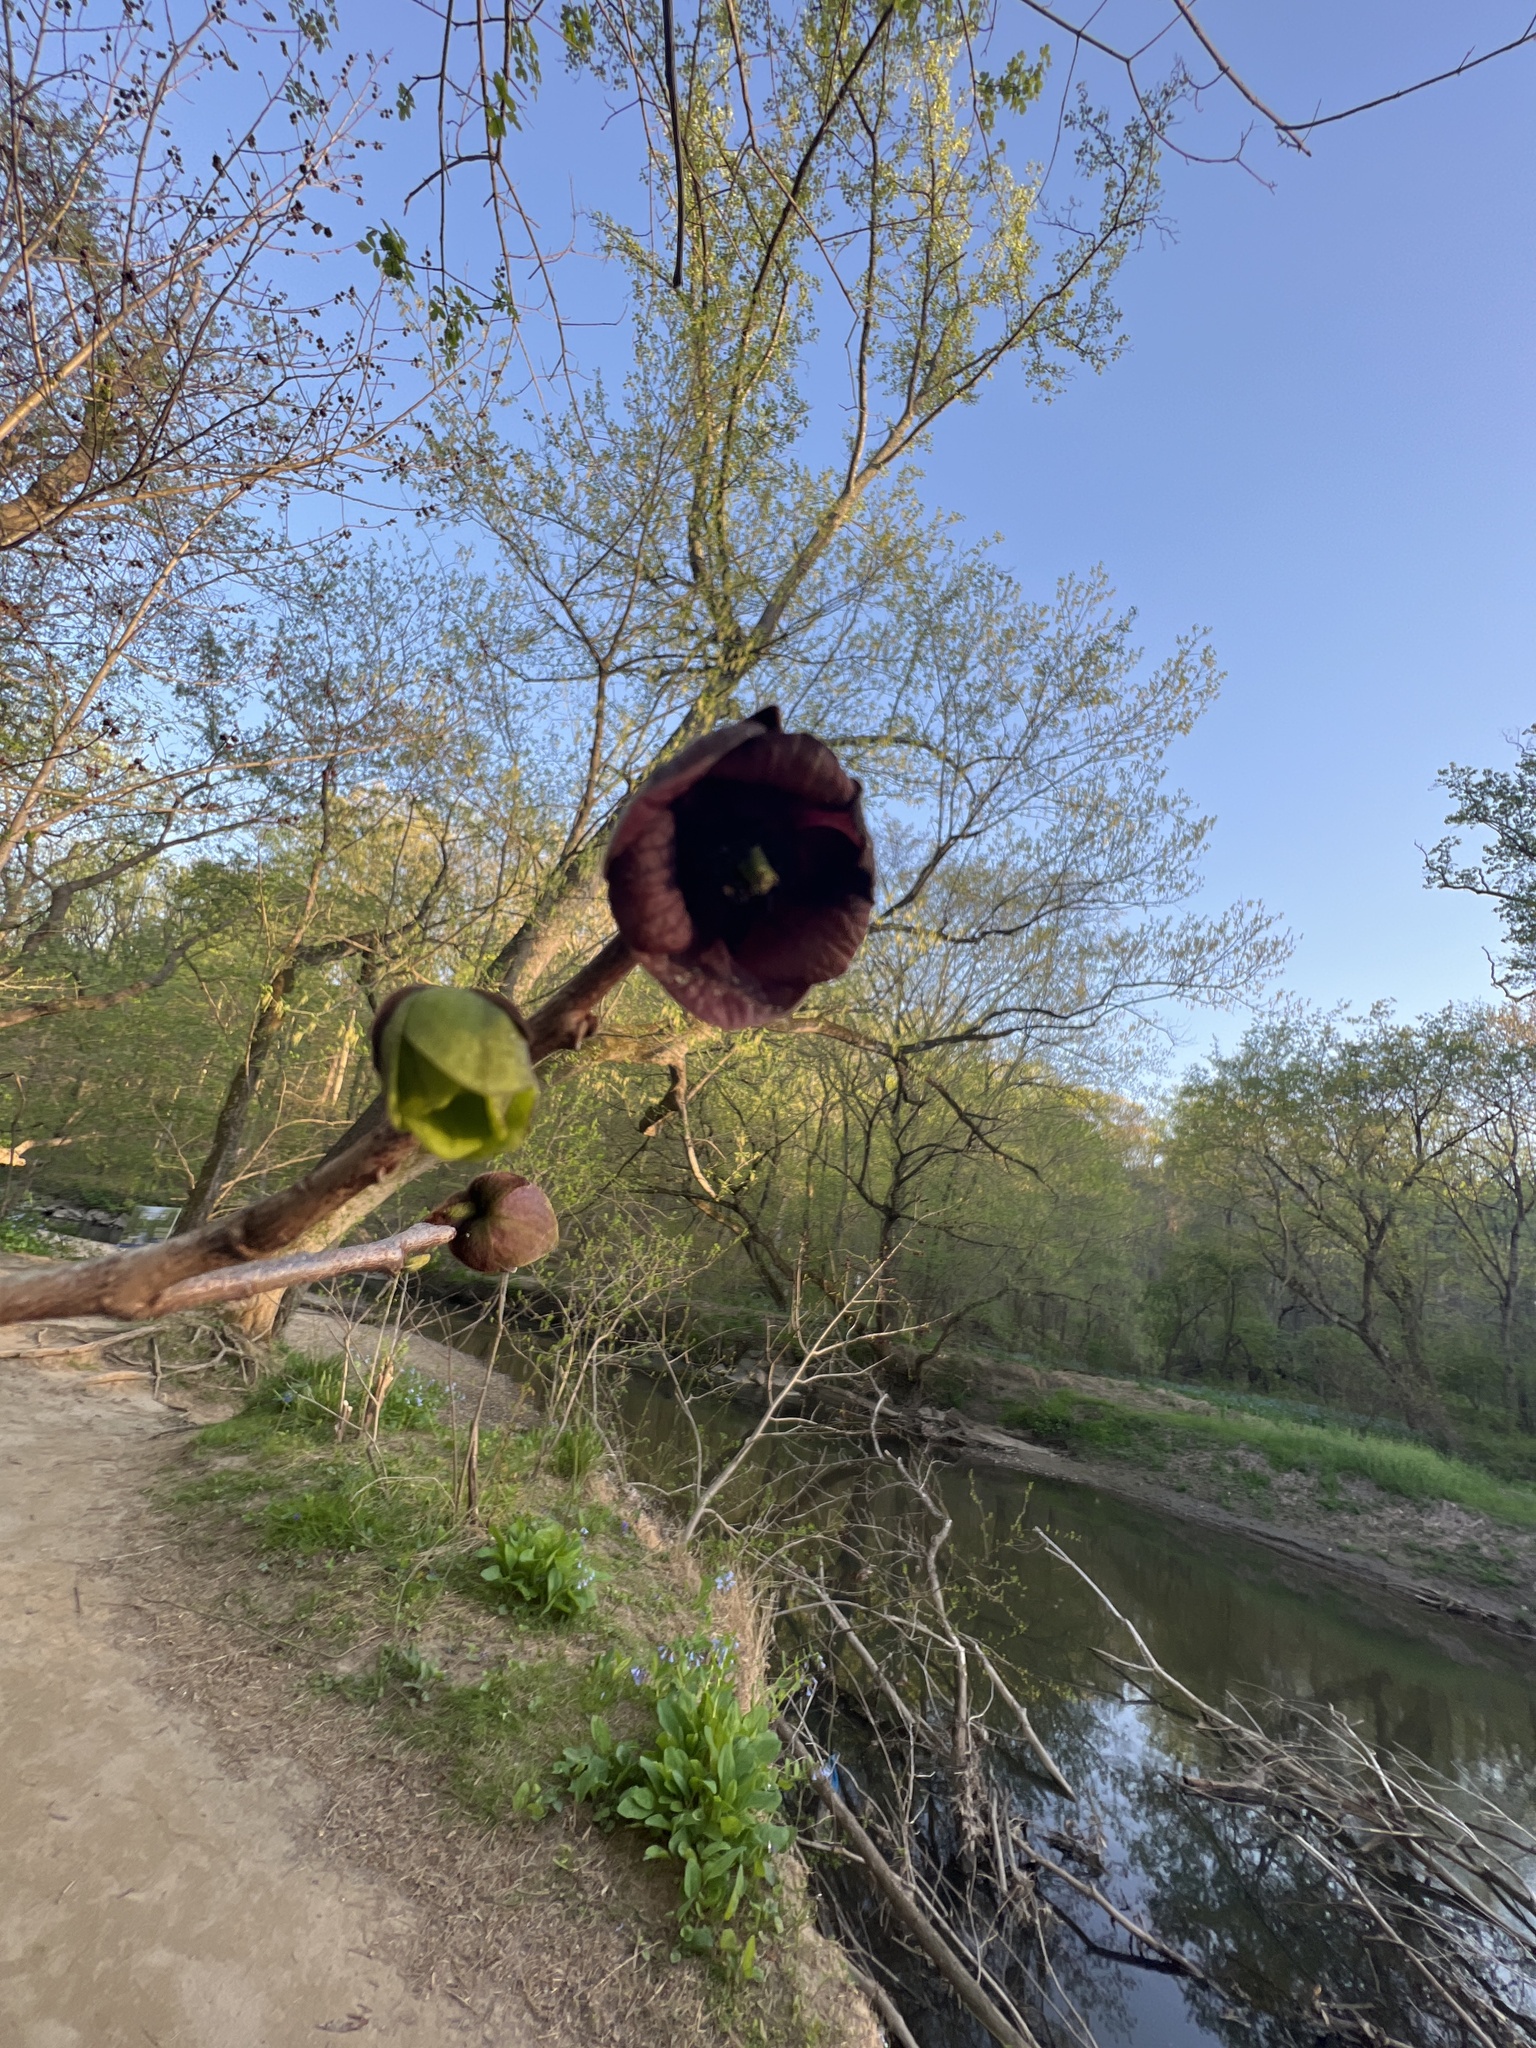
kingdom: Plantae
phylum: Tracheophyta
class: Magnoliopsida
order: Magnoliales
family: Annonaceae
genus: Asimina
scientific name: Asimina triloba
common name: Dog-banana
